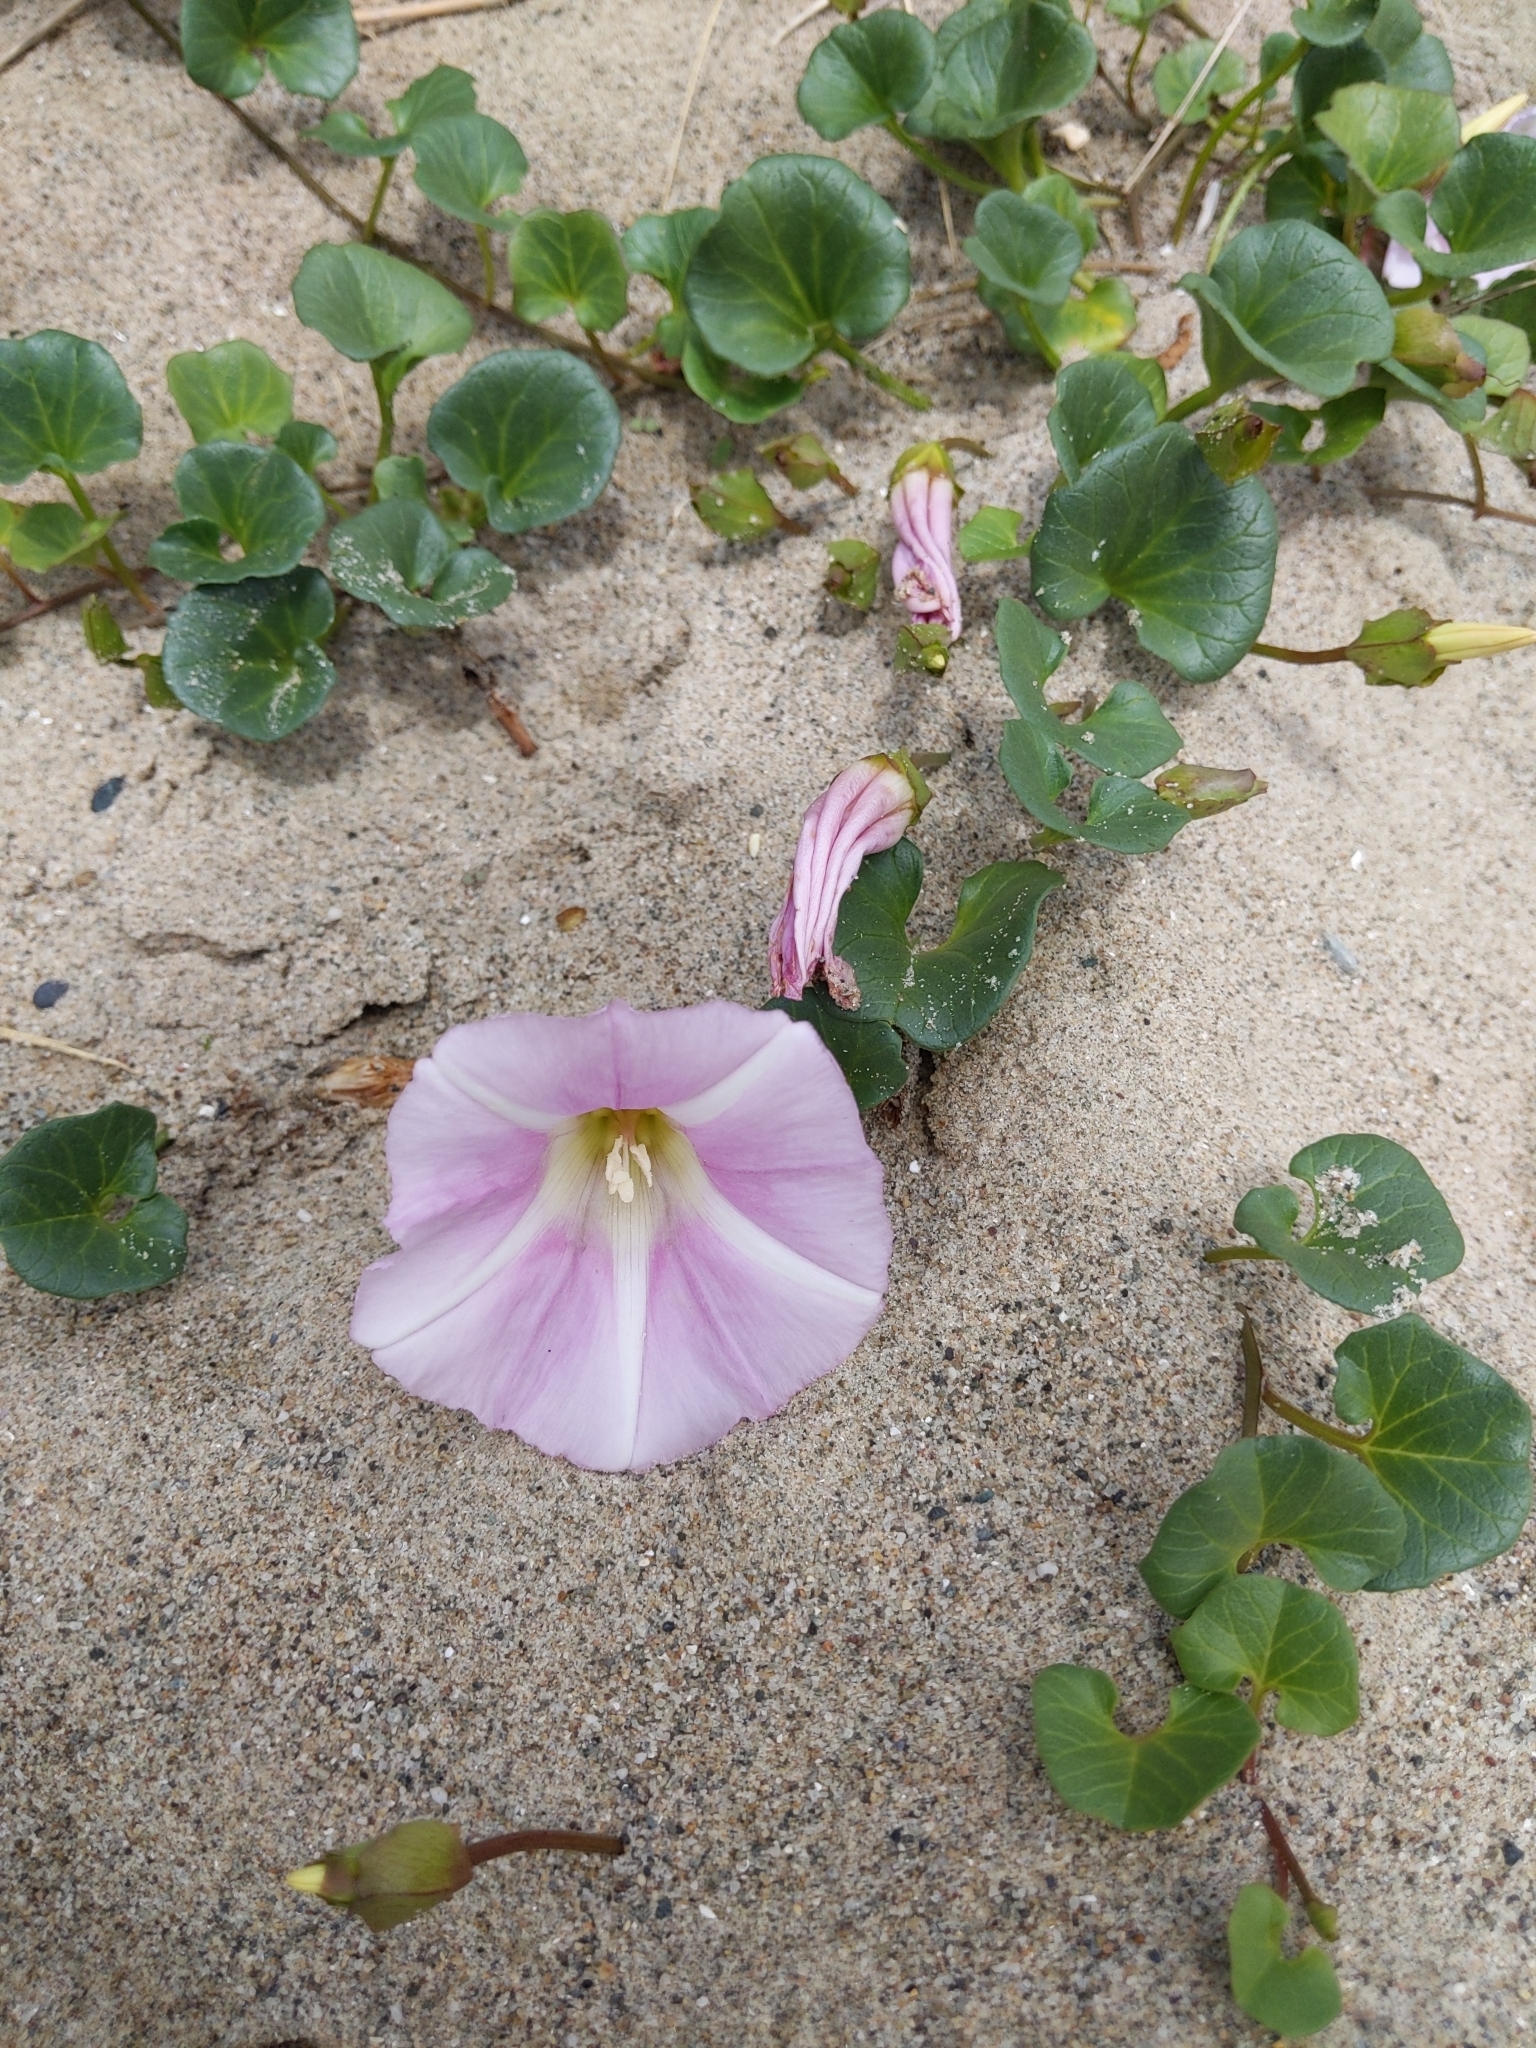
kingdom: Plantae
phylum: Tracheophyta
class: Magnoliopsida
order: Solanales
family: Convolvulaceae
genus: Calystegia
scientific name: Calystegia soldanella
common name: Sea bindweed
